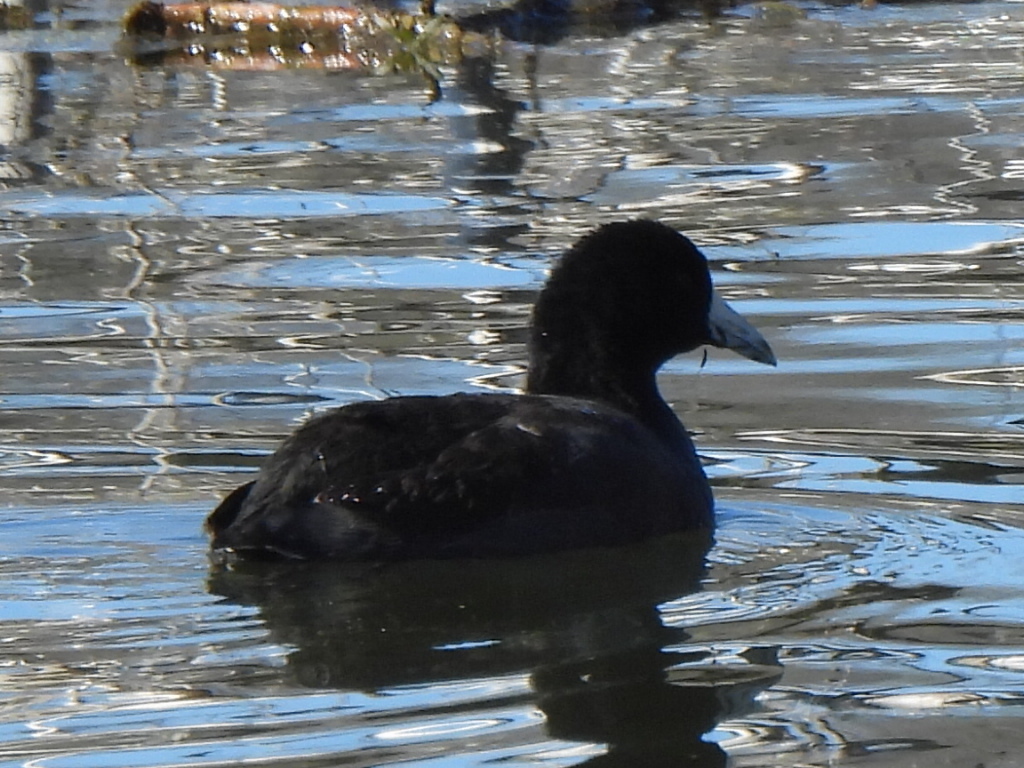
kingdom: Animalia
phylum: Chordata
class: Aves
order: Gruiformes
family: Rallidae
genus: Fulica
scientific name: Fulica americana
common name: American coot
